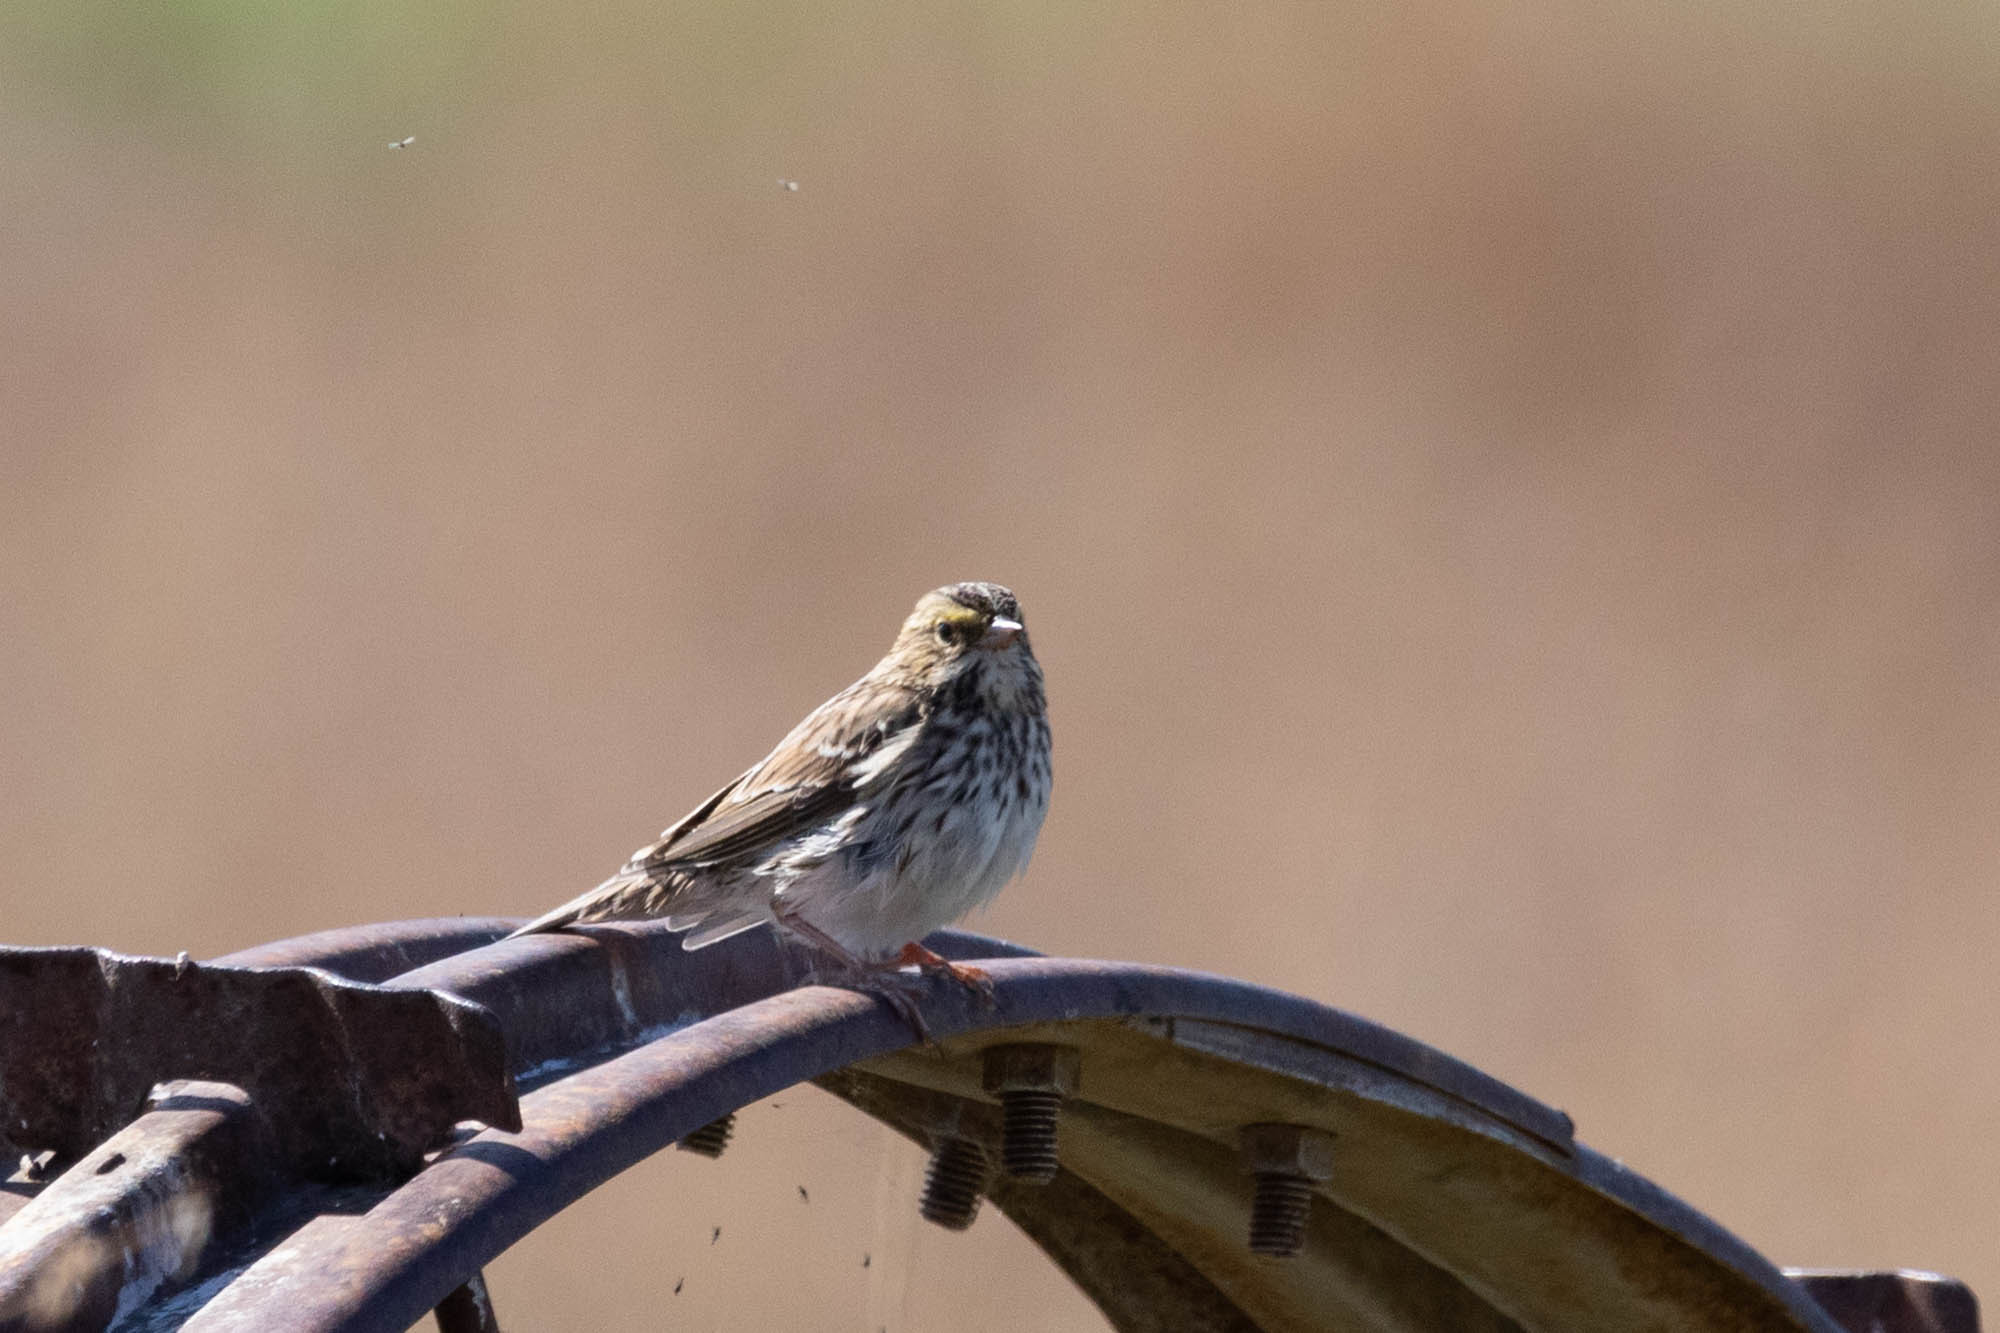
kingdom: Animalia
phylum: Chordata
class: Aves
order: Passeriformes
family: Passerellidae
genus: Passerculus
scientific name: Passerculus sandwichensis
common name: Savannah sparrow
